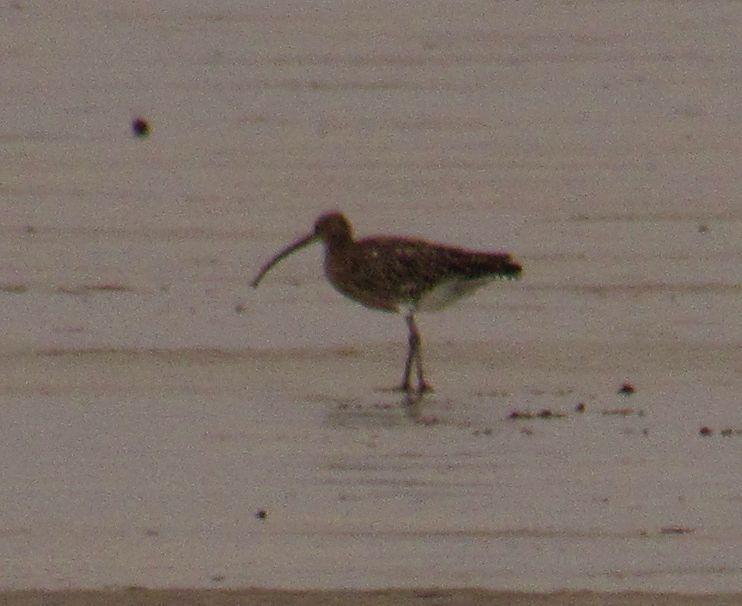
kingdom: Animalia
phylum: Chordata
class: Aves
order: Charadriiformes
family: Scolopacidae
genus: Numenius
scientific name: Numenius arquata
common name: Eurasian curlew
